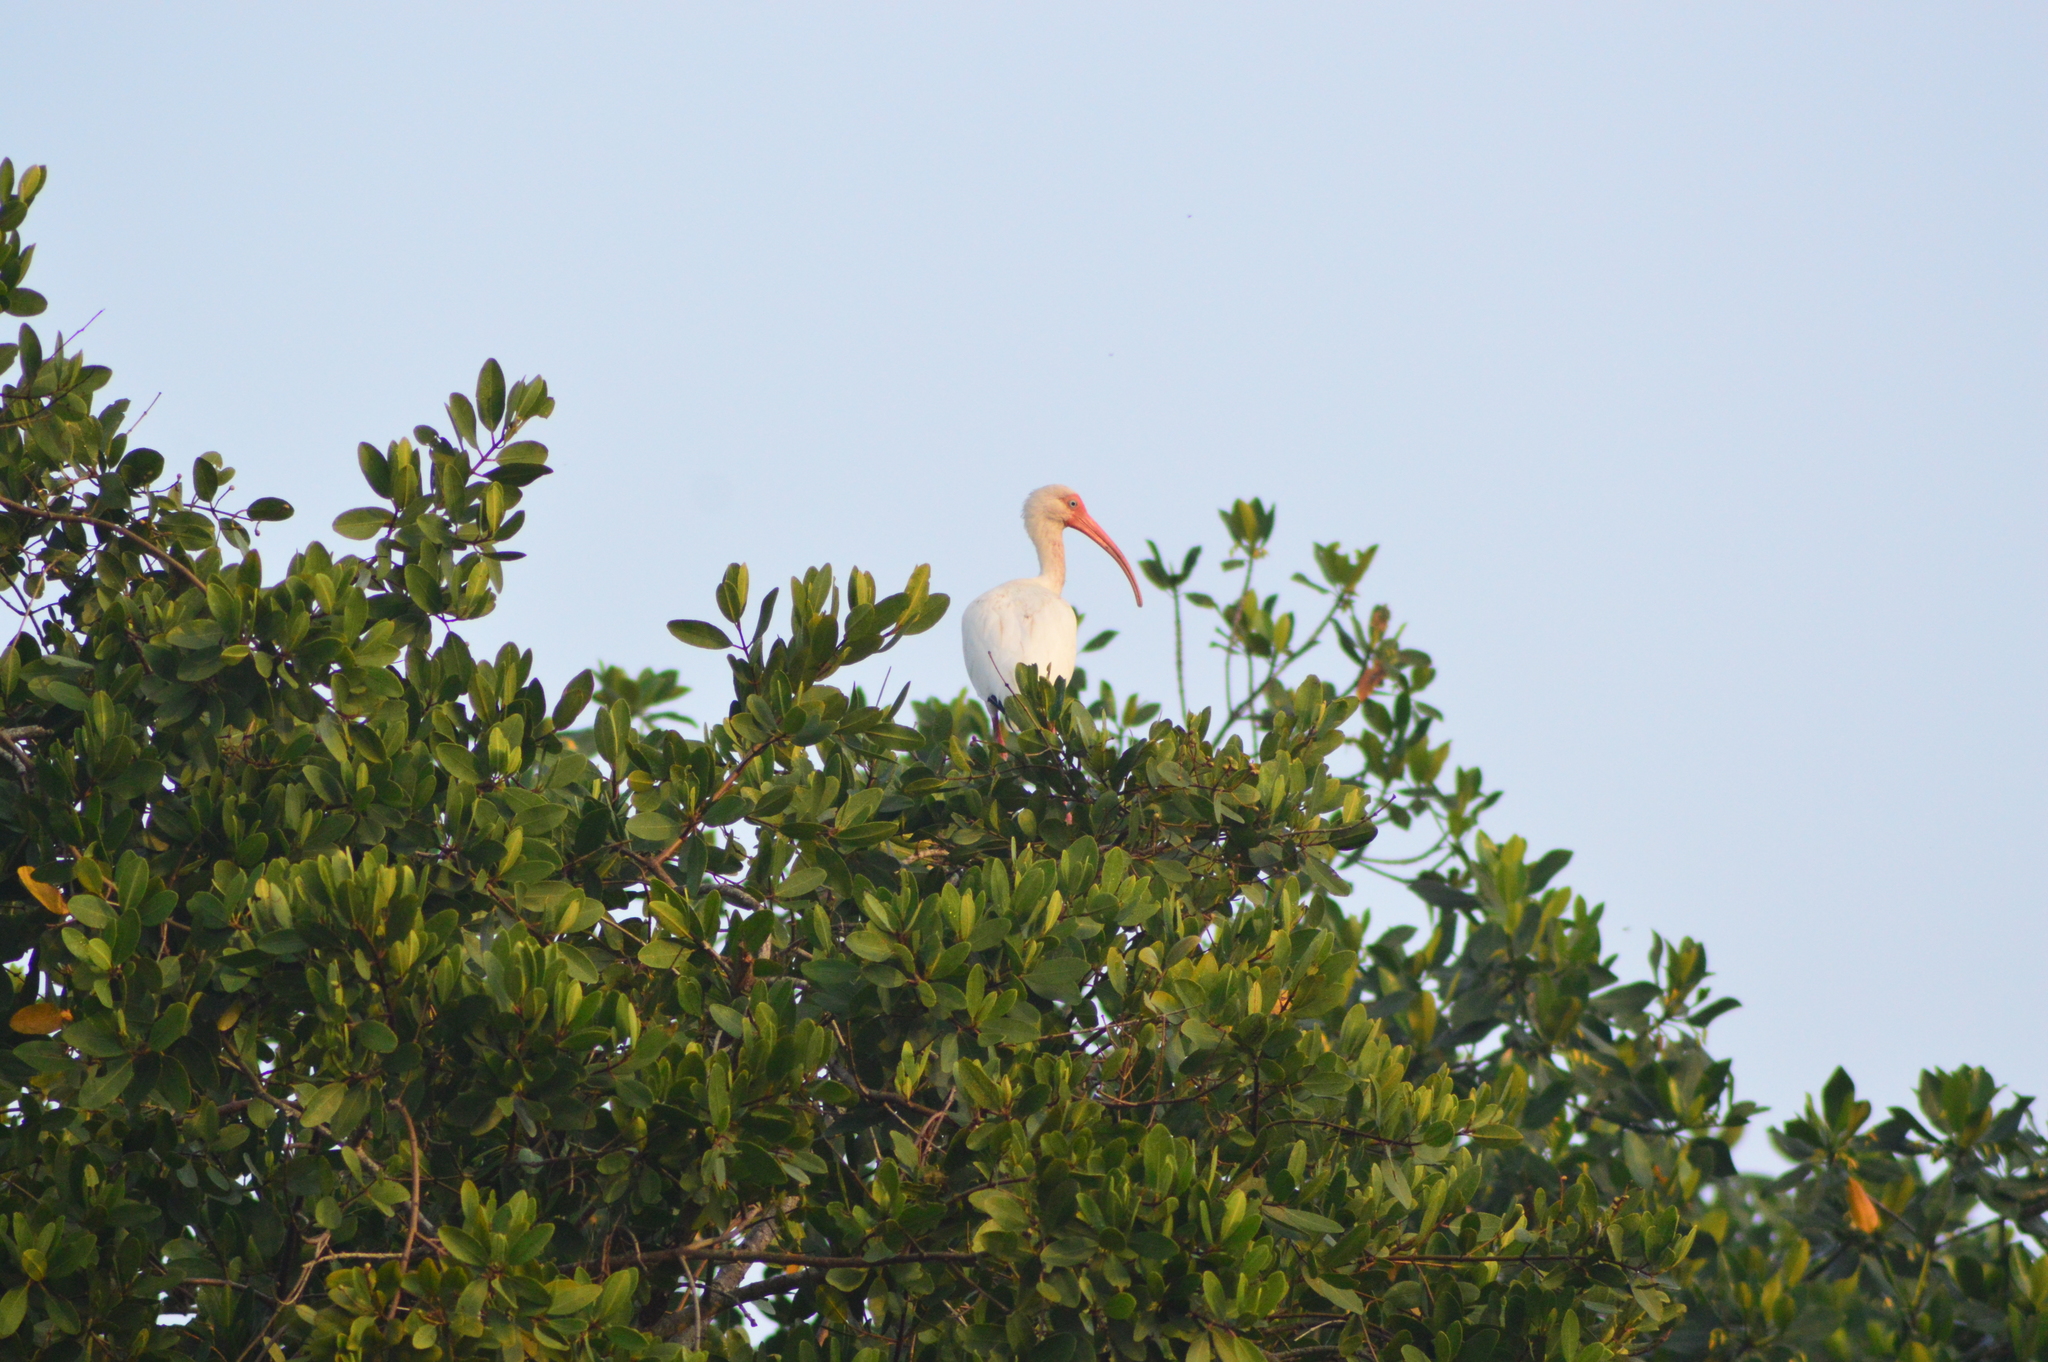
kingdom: Animalia
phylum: Chordata
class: Aves
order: Pelecaniformes
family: Threskiornithidae
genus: Eudocimus
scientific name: Eudocimus albus
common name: White ibis
